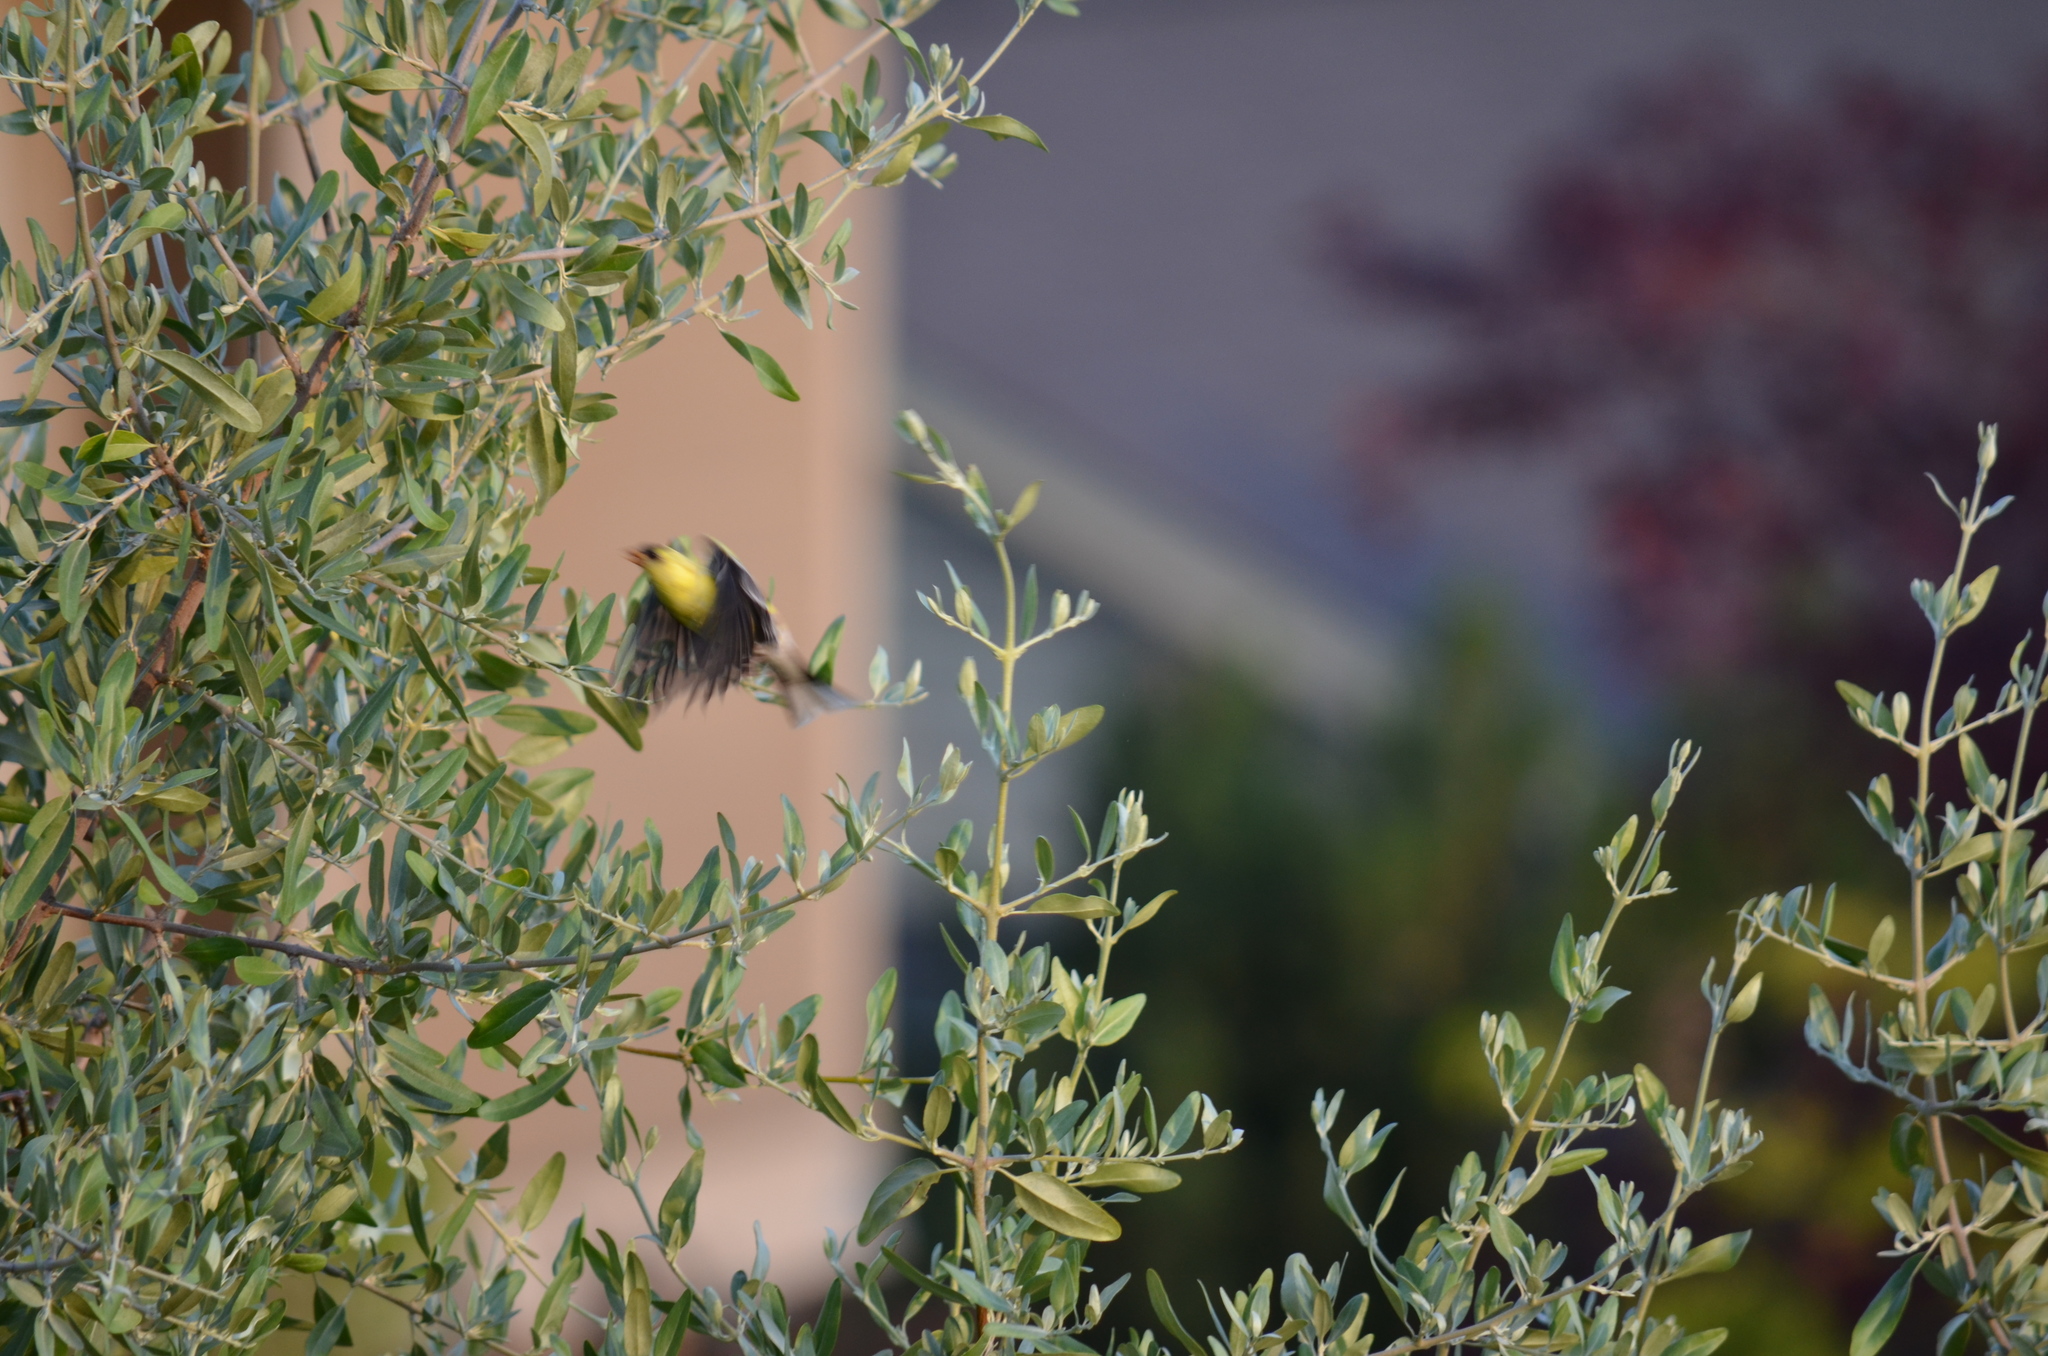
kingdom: Animalia
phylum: Chordata
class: Aves
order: Passeriformes
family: Fringillidae
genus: Spinus
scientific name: Spinus tristis
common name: American goldfinch
